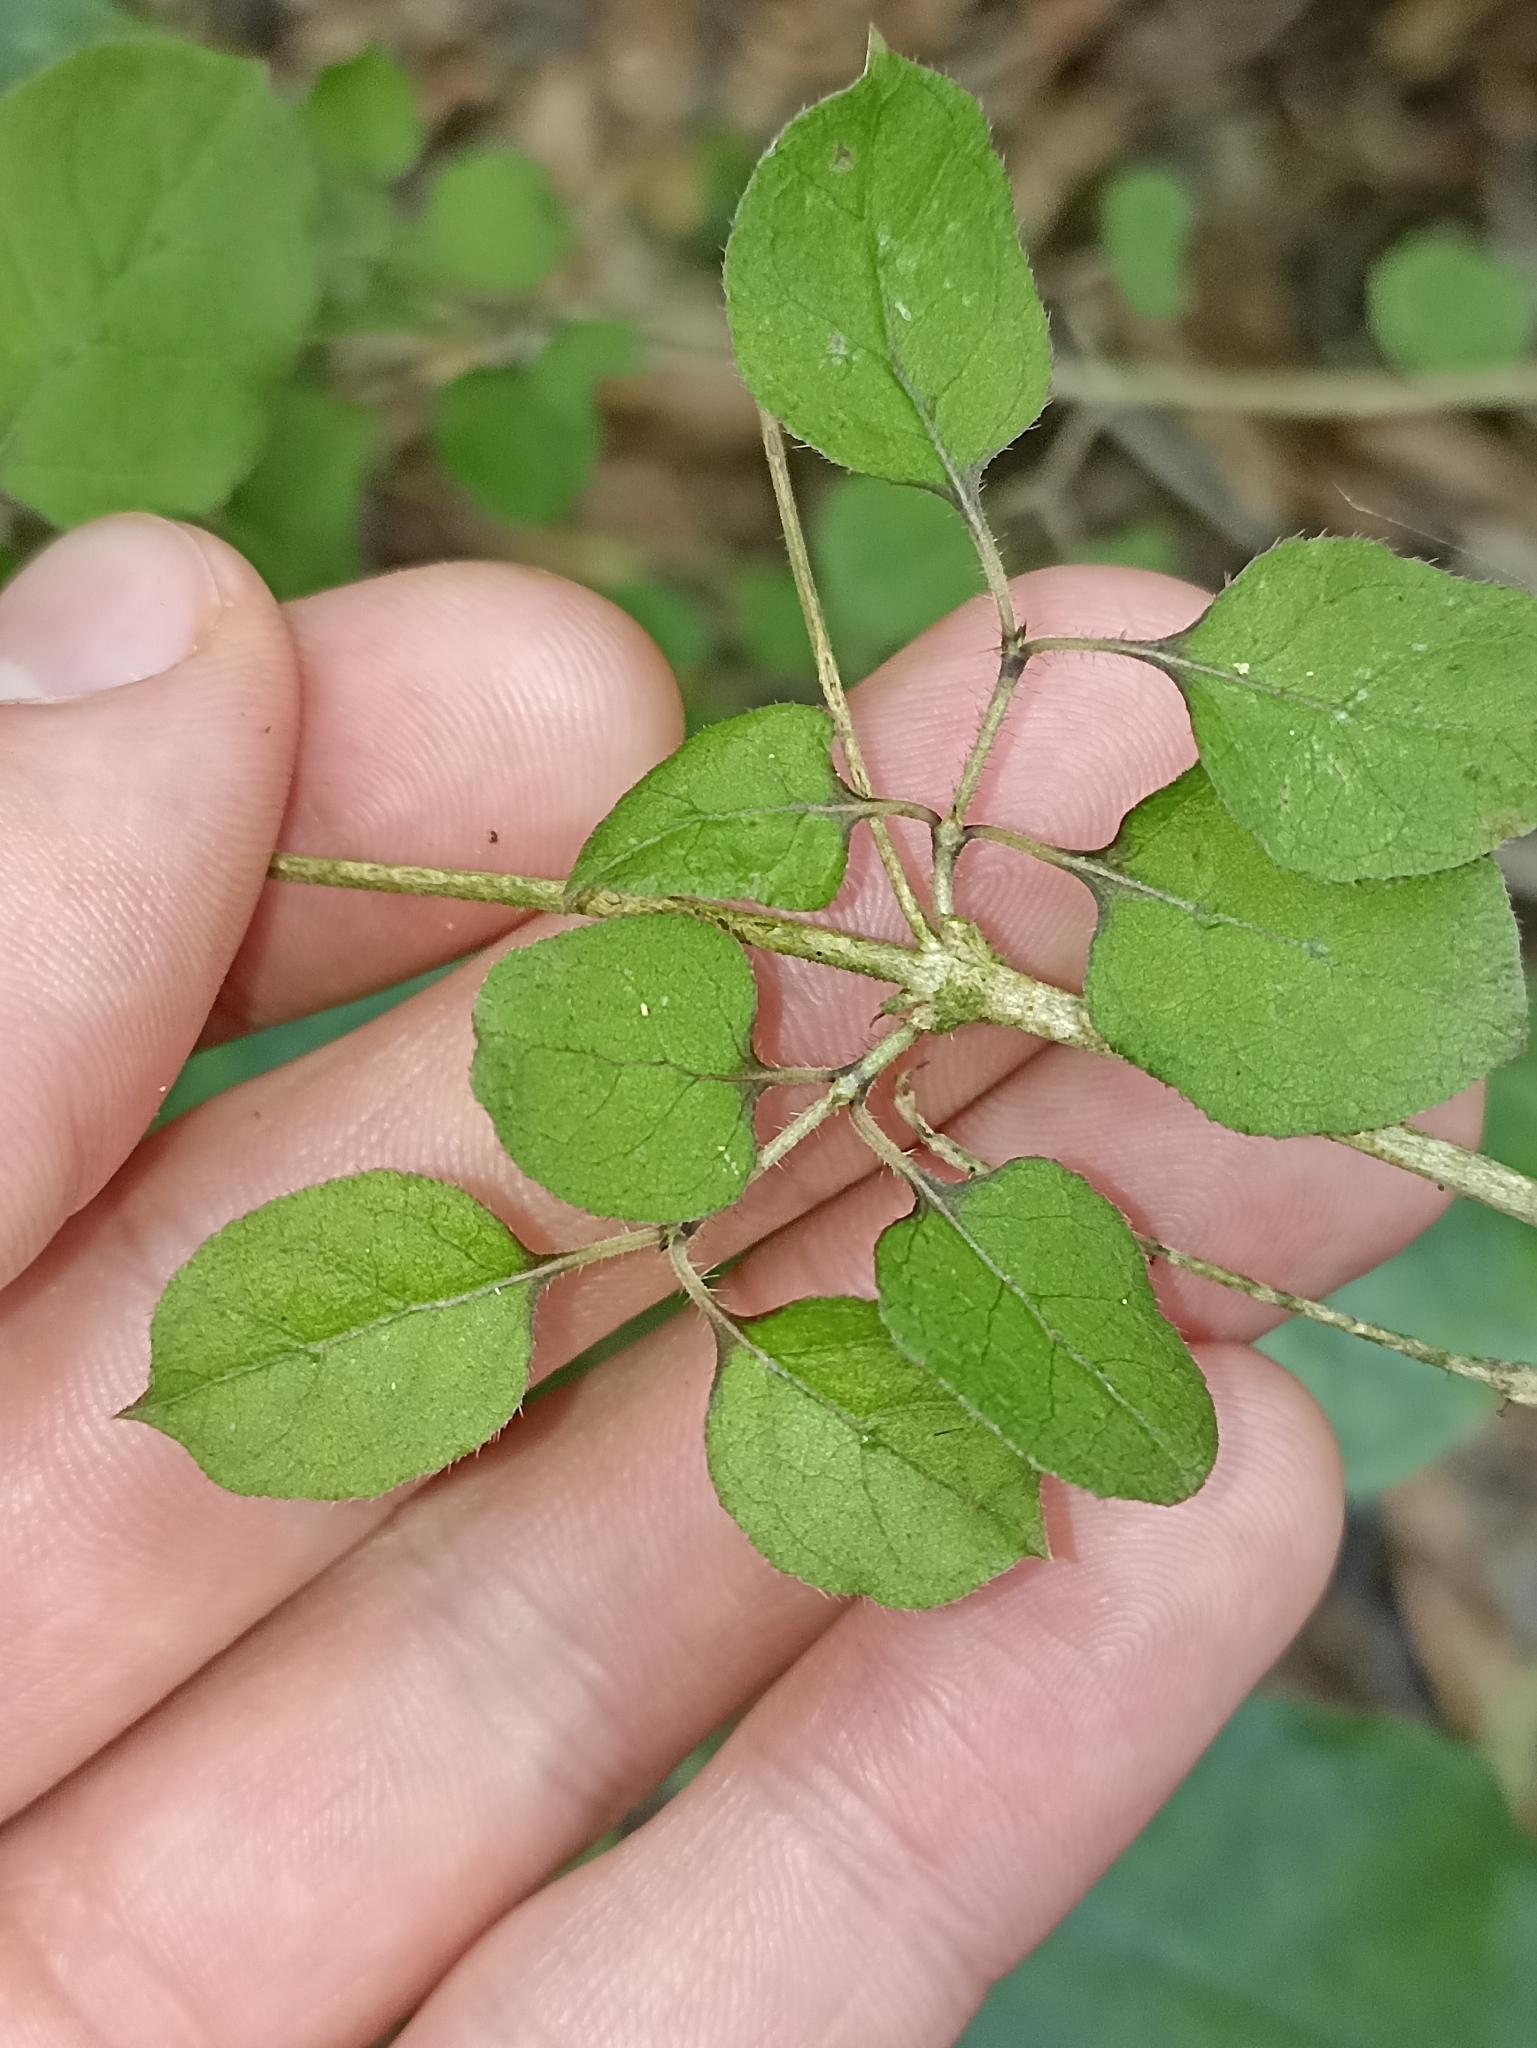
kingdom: Plantae
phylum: Tracheophyta
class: Magnoliopsida
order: Gentianales
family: Rubiaceae
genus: Coprosma
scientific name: Coprosma rotundifolia
